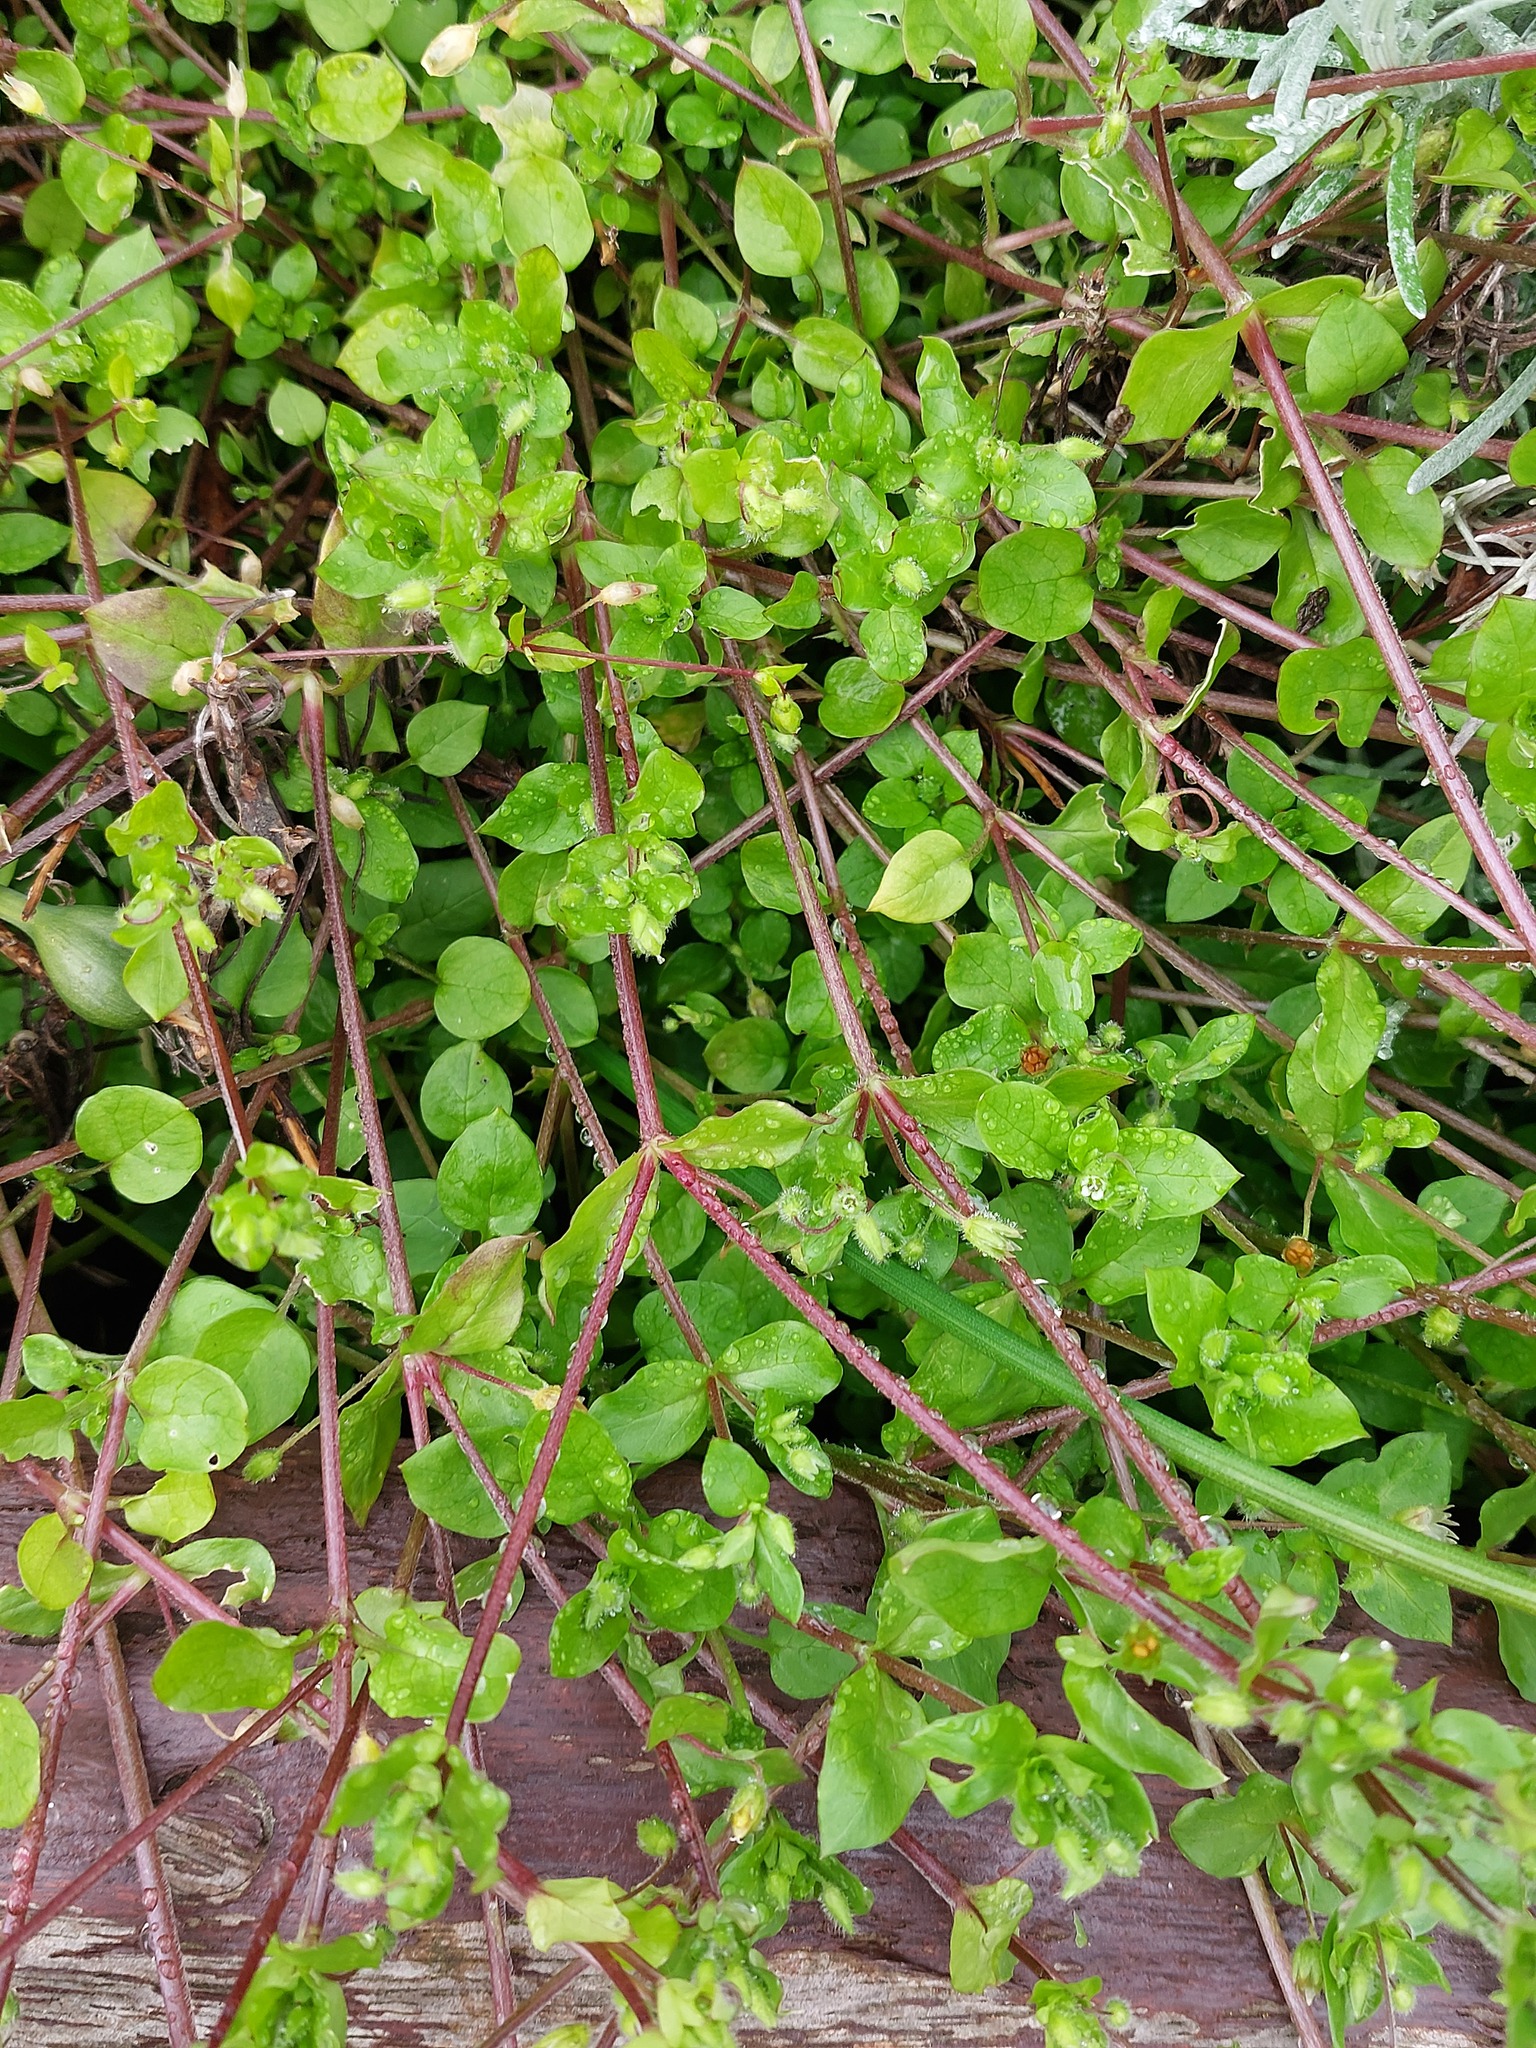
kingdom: Plantae
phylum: Tracheophyta
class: Magnoliopsida
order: Caryophyllales
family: Caryophyllaceae
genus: Stellaria
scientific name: Stellaria media
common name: Common chickweed
